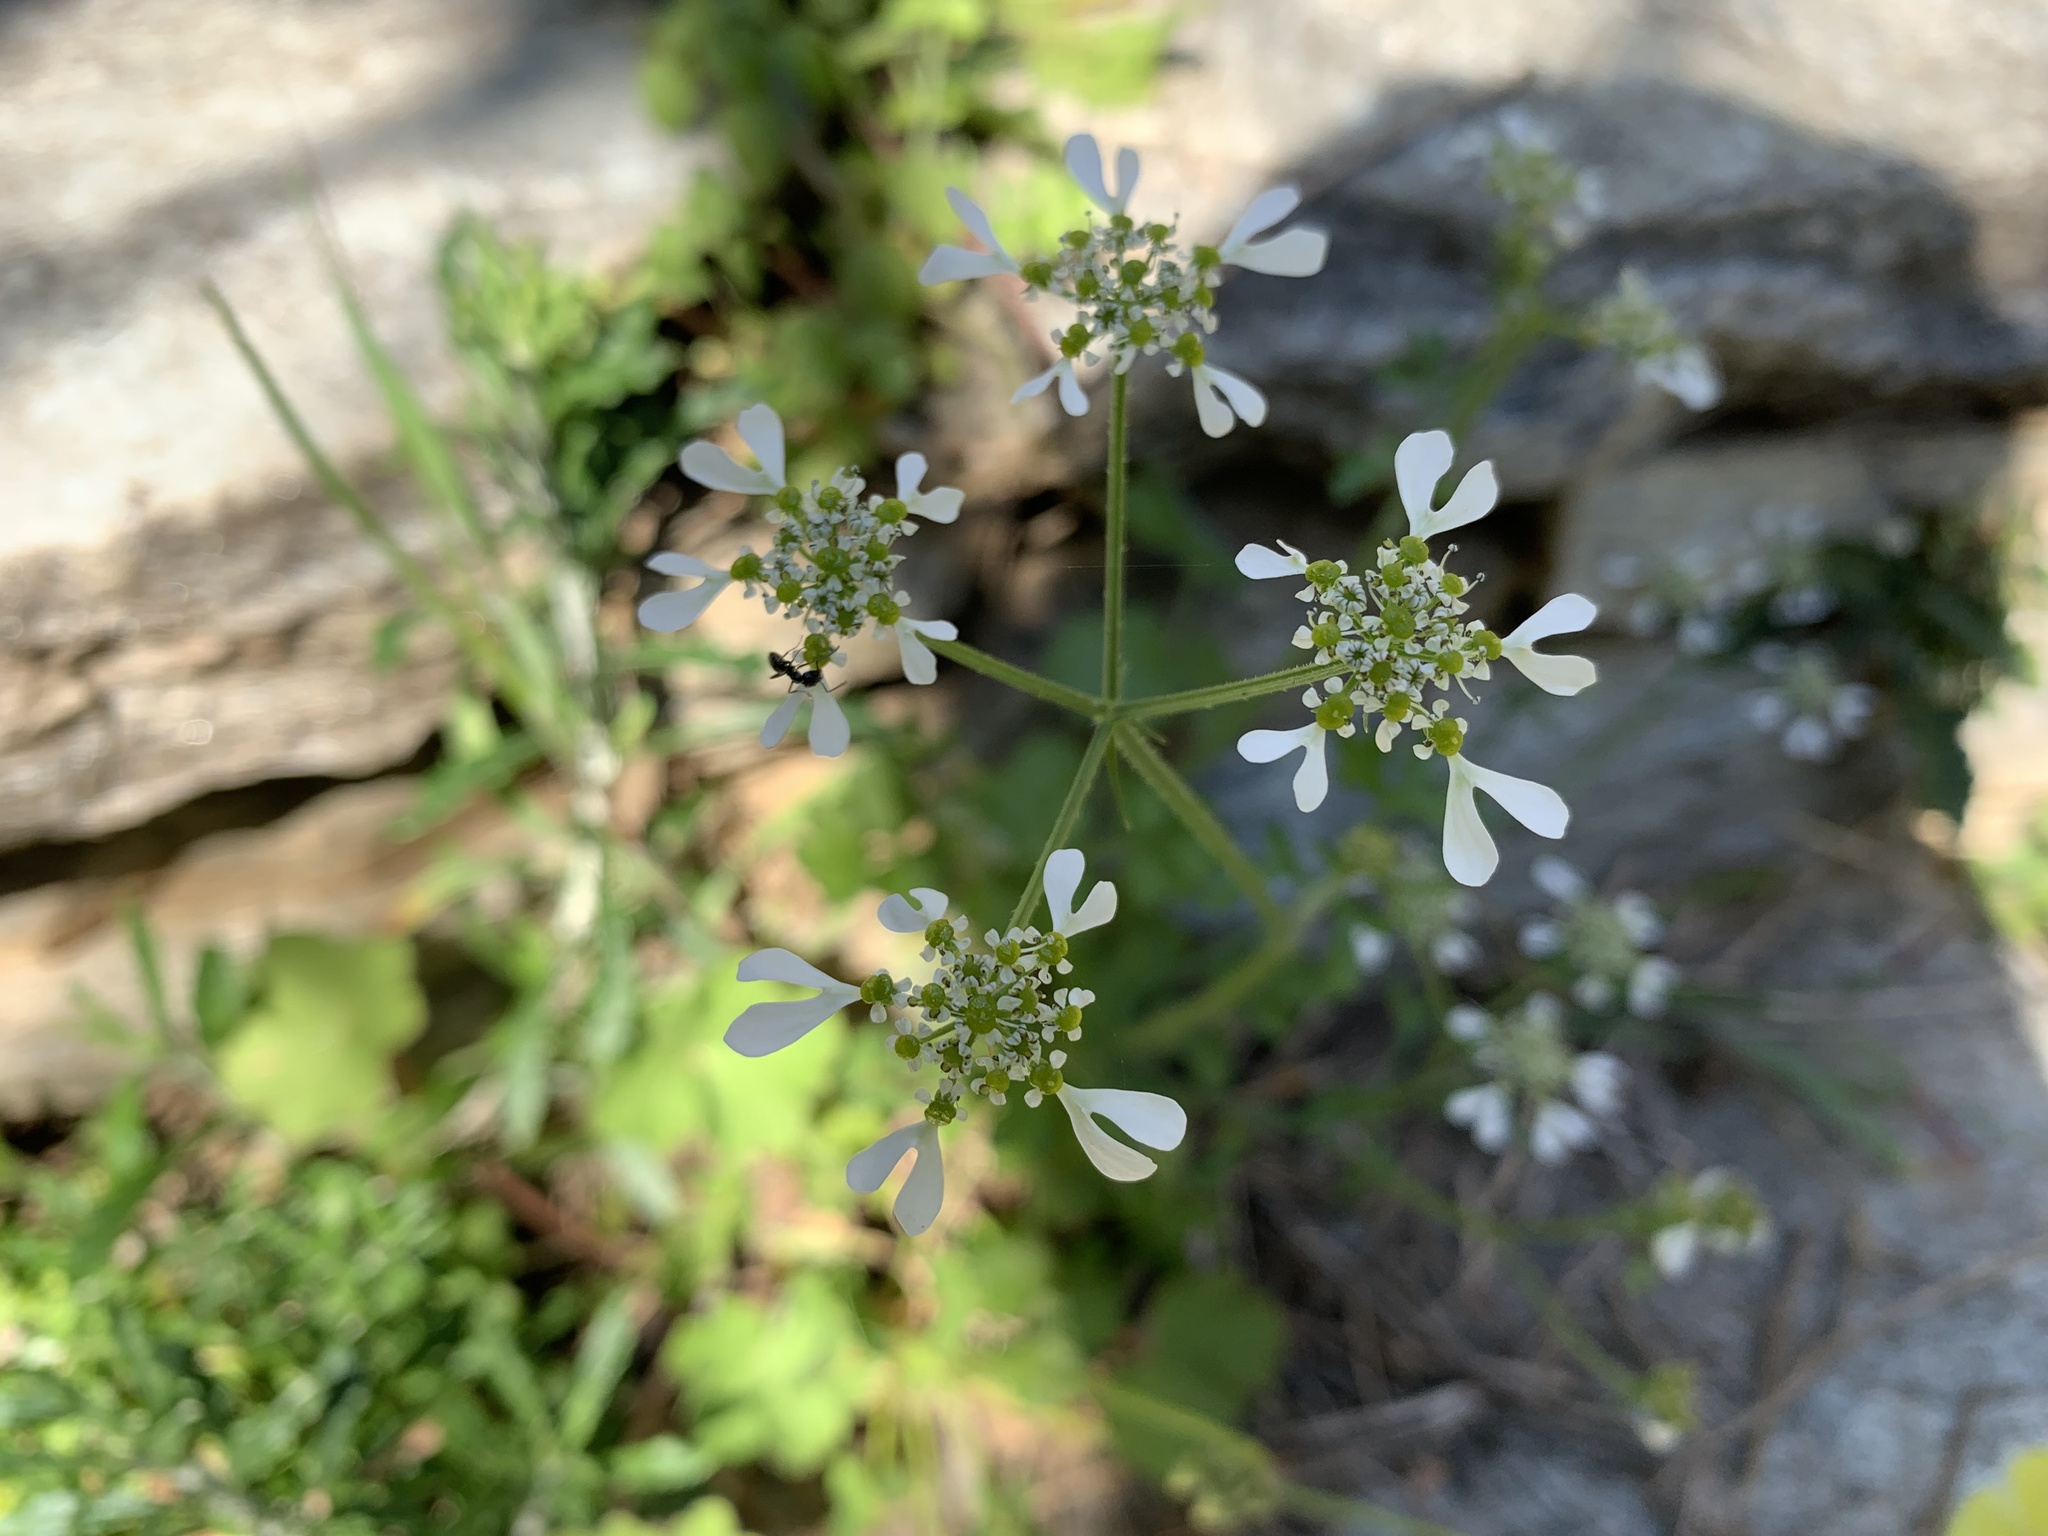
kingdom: Plantae
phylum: Tracheophyta
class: Magnoliopsida
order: Apiales
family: Apiaceae
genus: Tordylium
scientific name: Tordylium apulum
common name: Mediterranean hartwort
